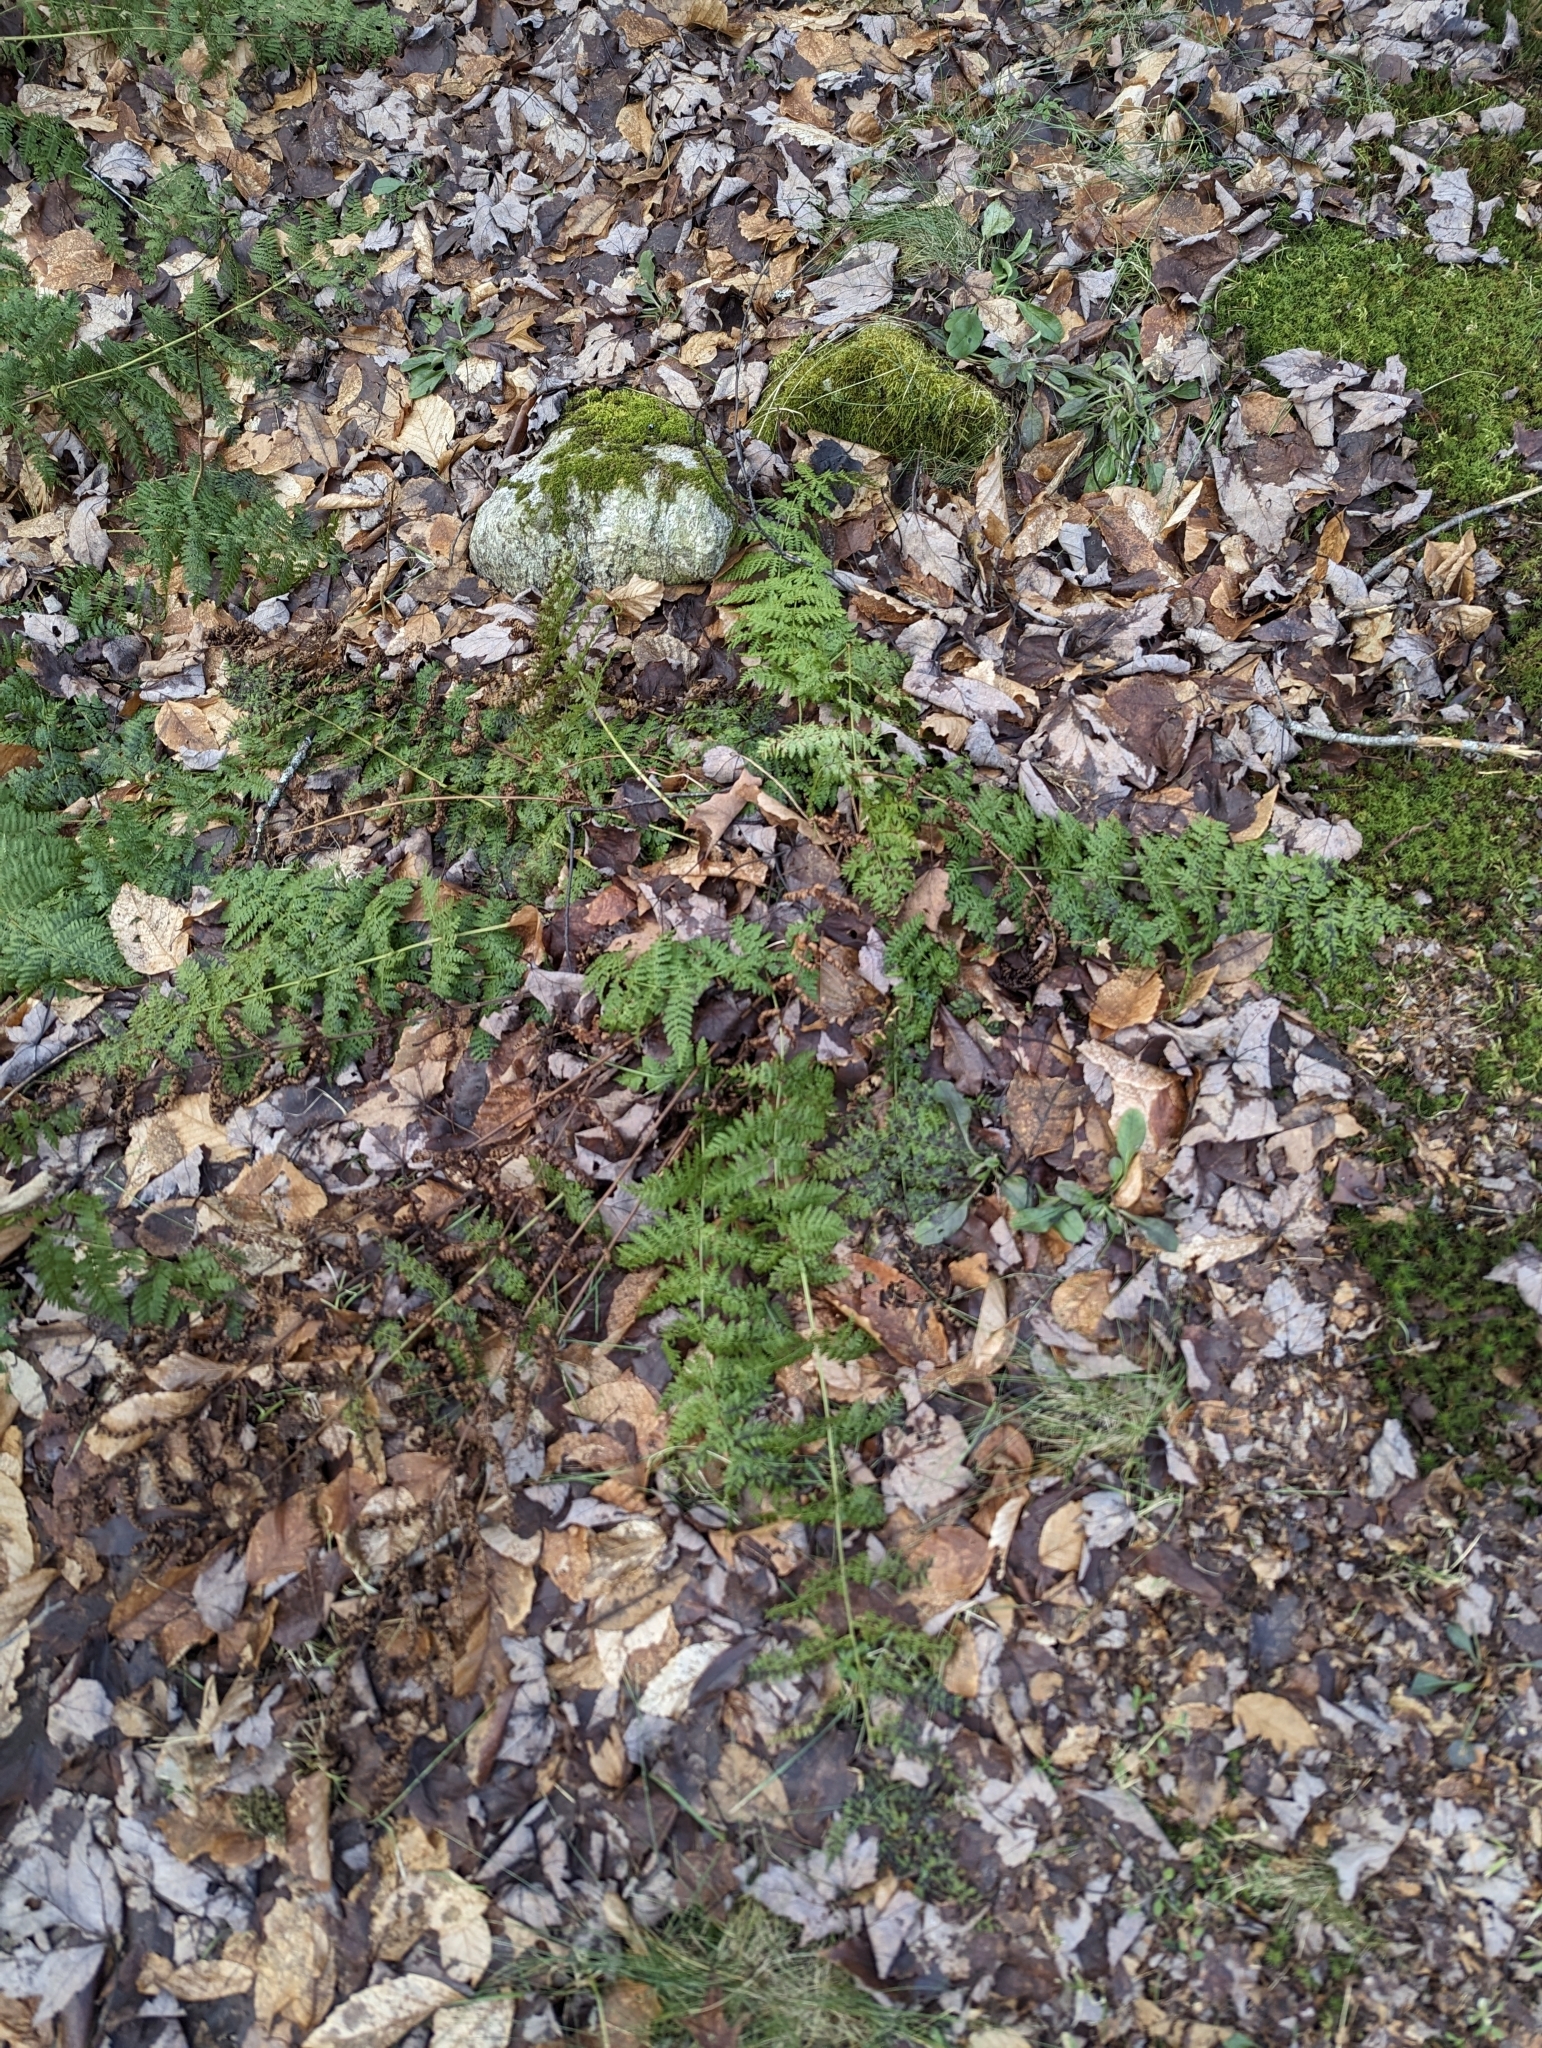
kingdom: Plantae
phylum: Tracheophyta
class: Polypodiopsida
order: Polypodiales
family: Dryopteridaceae
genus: Dryopteris
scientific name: Dryopteris intermedia
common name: Evergreen wood fern
